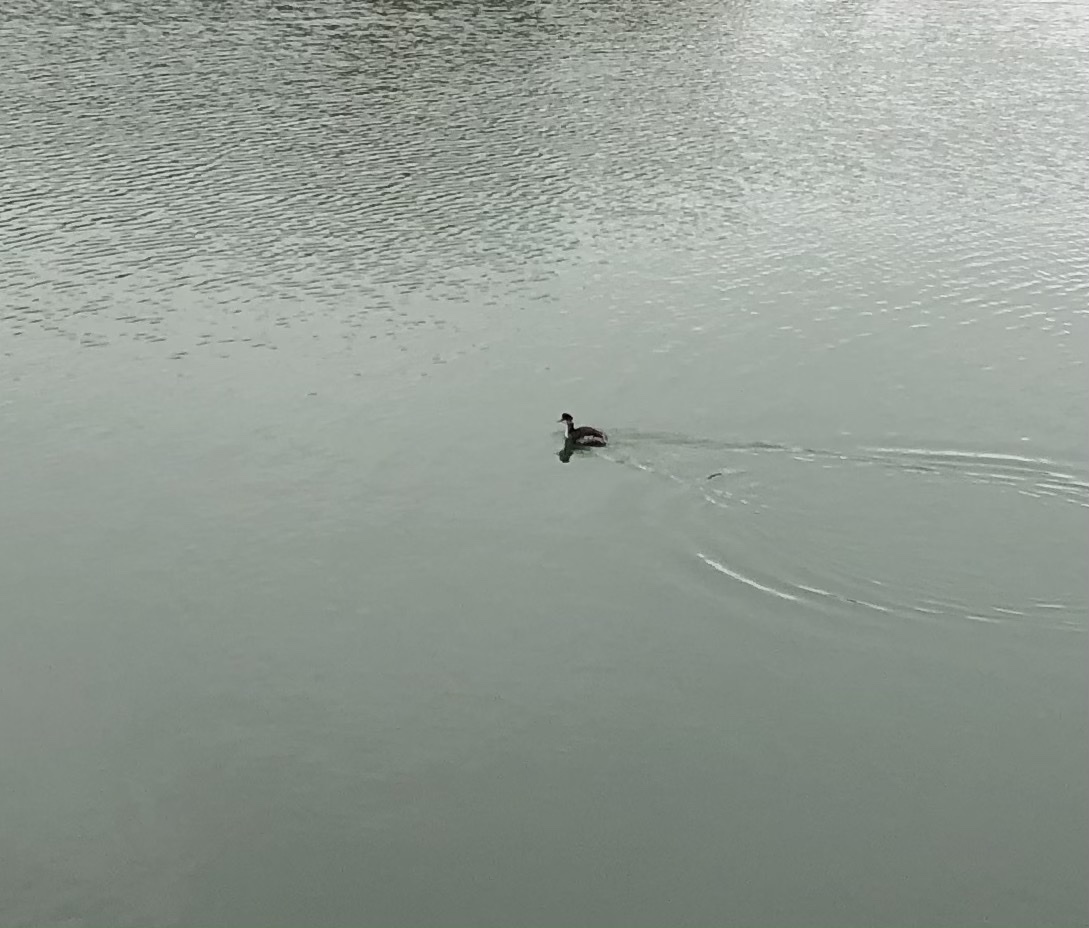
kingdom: Animalia
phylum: Chordata
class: Aves
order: Podicipediformes
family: Podicipedidae
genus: Podiceps
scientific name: Podiceps nigricollis
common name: Black-necked grebe
